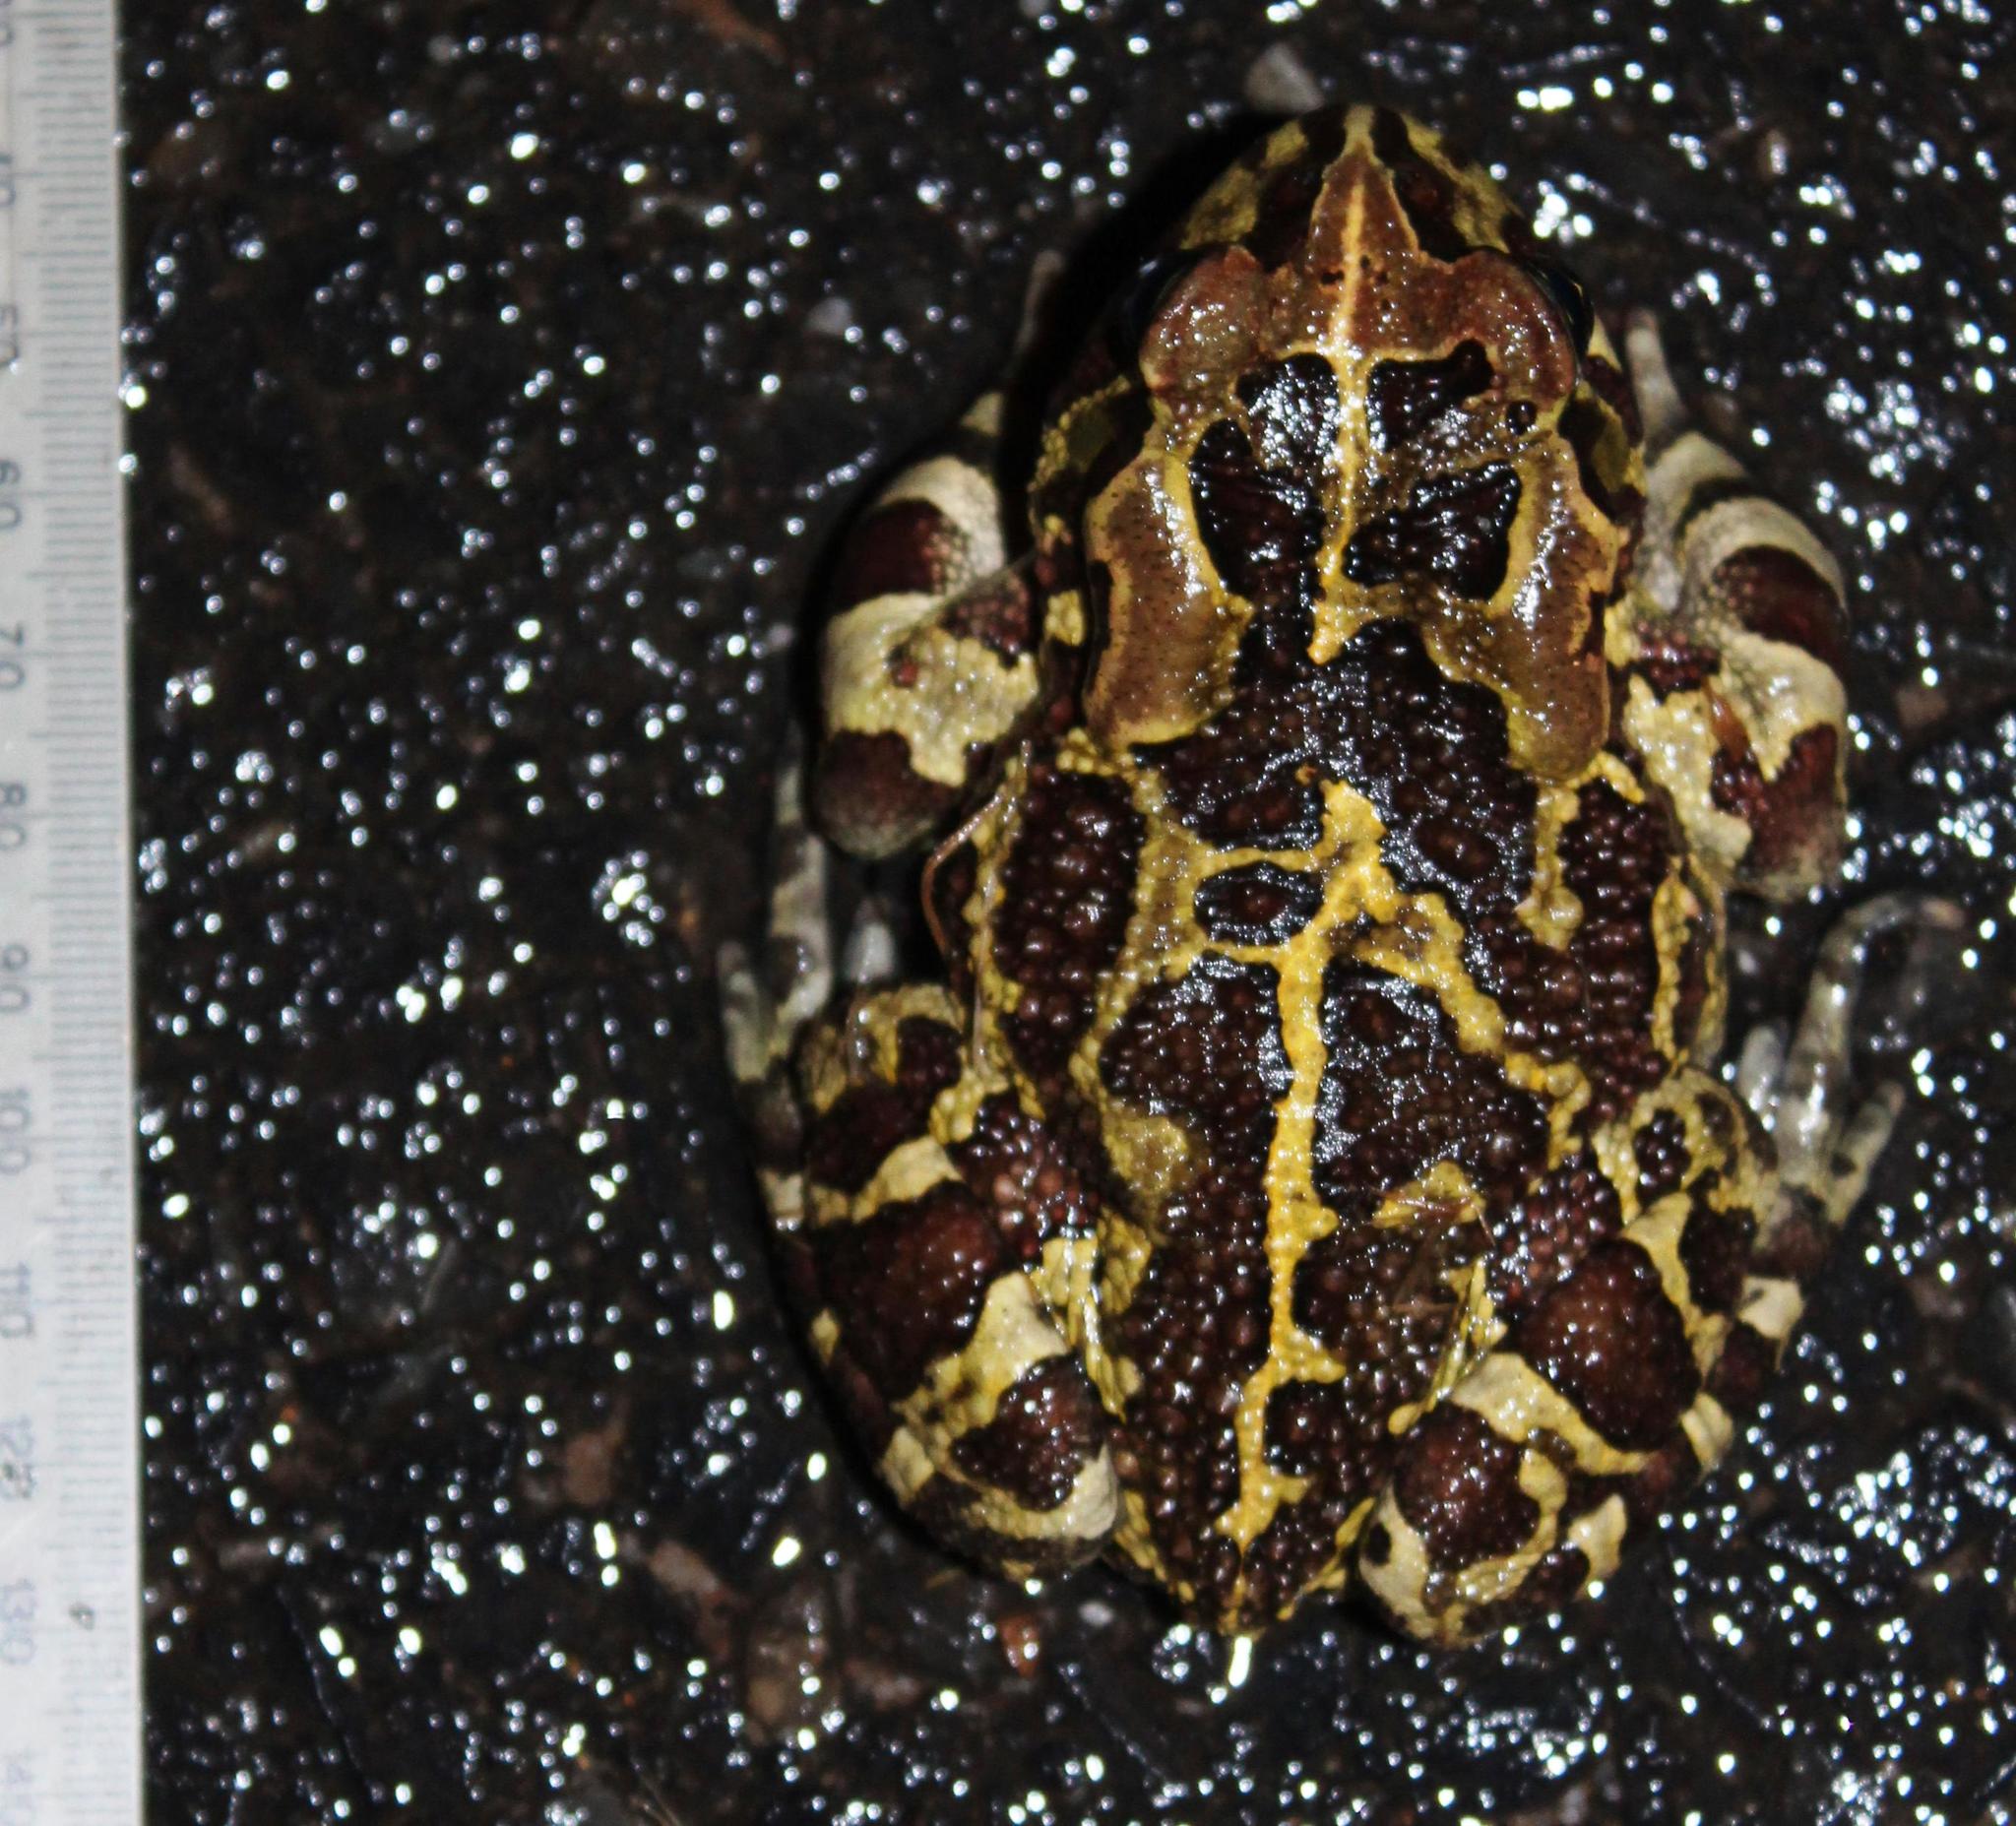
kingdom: Animalia
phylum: Chordata
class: Amphibia
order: Anura
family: Bufonidae
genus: Sclerophrys
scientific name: Sclerophrys pantherina
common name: Panther toad
